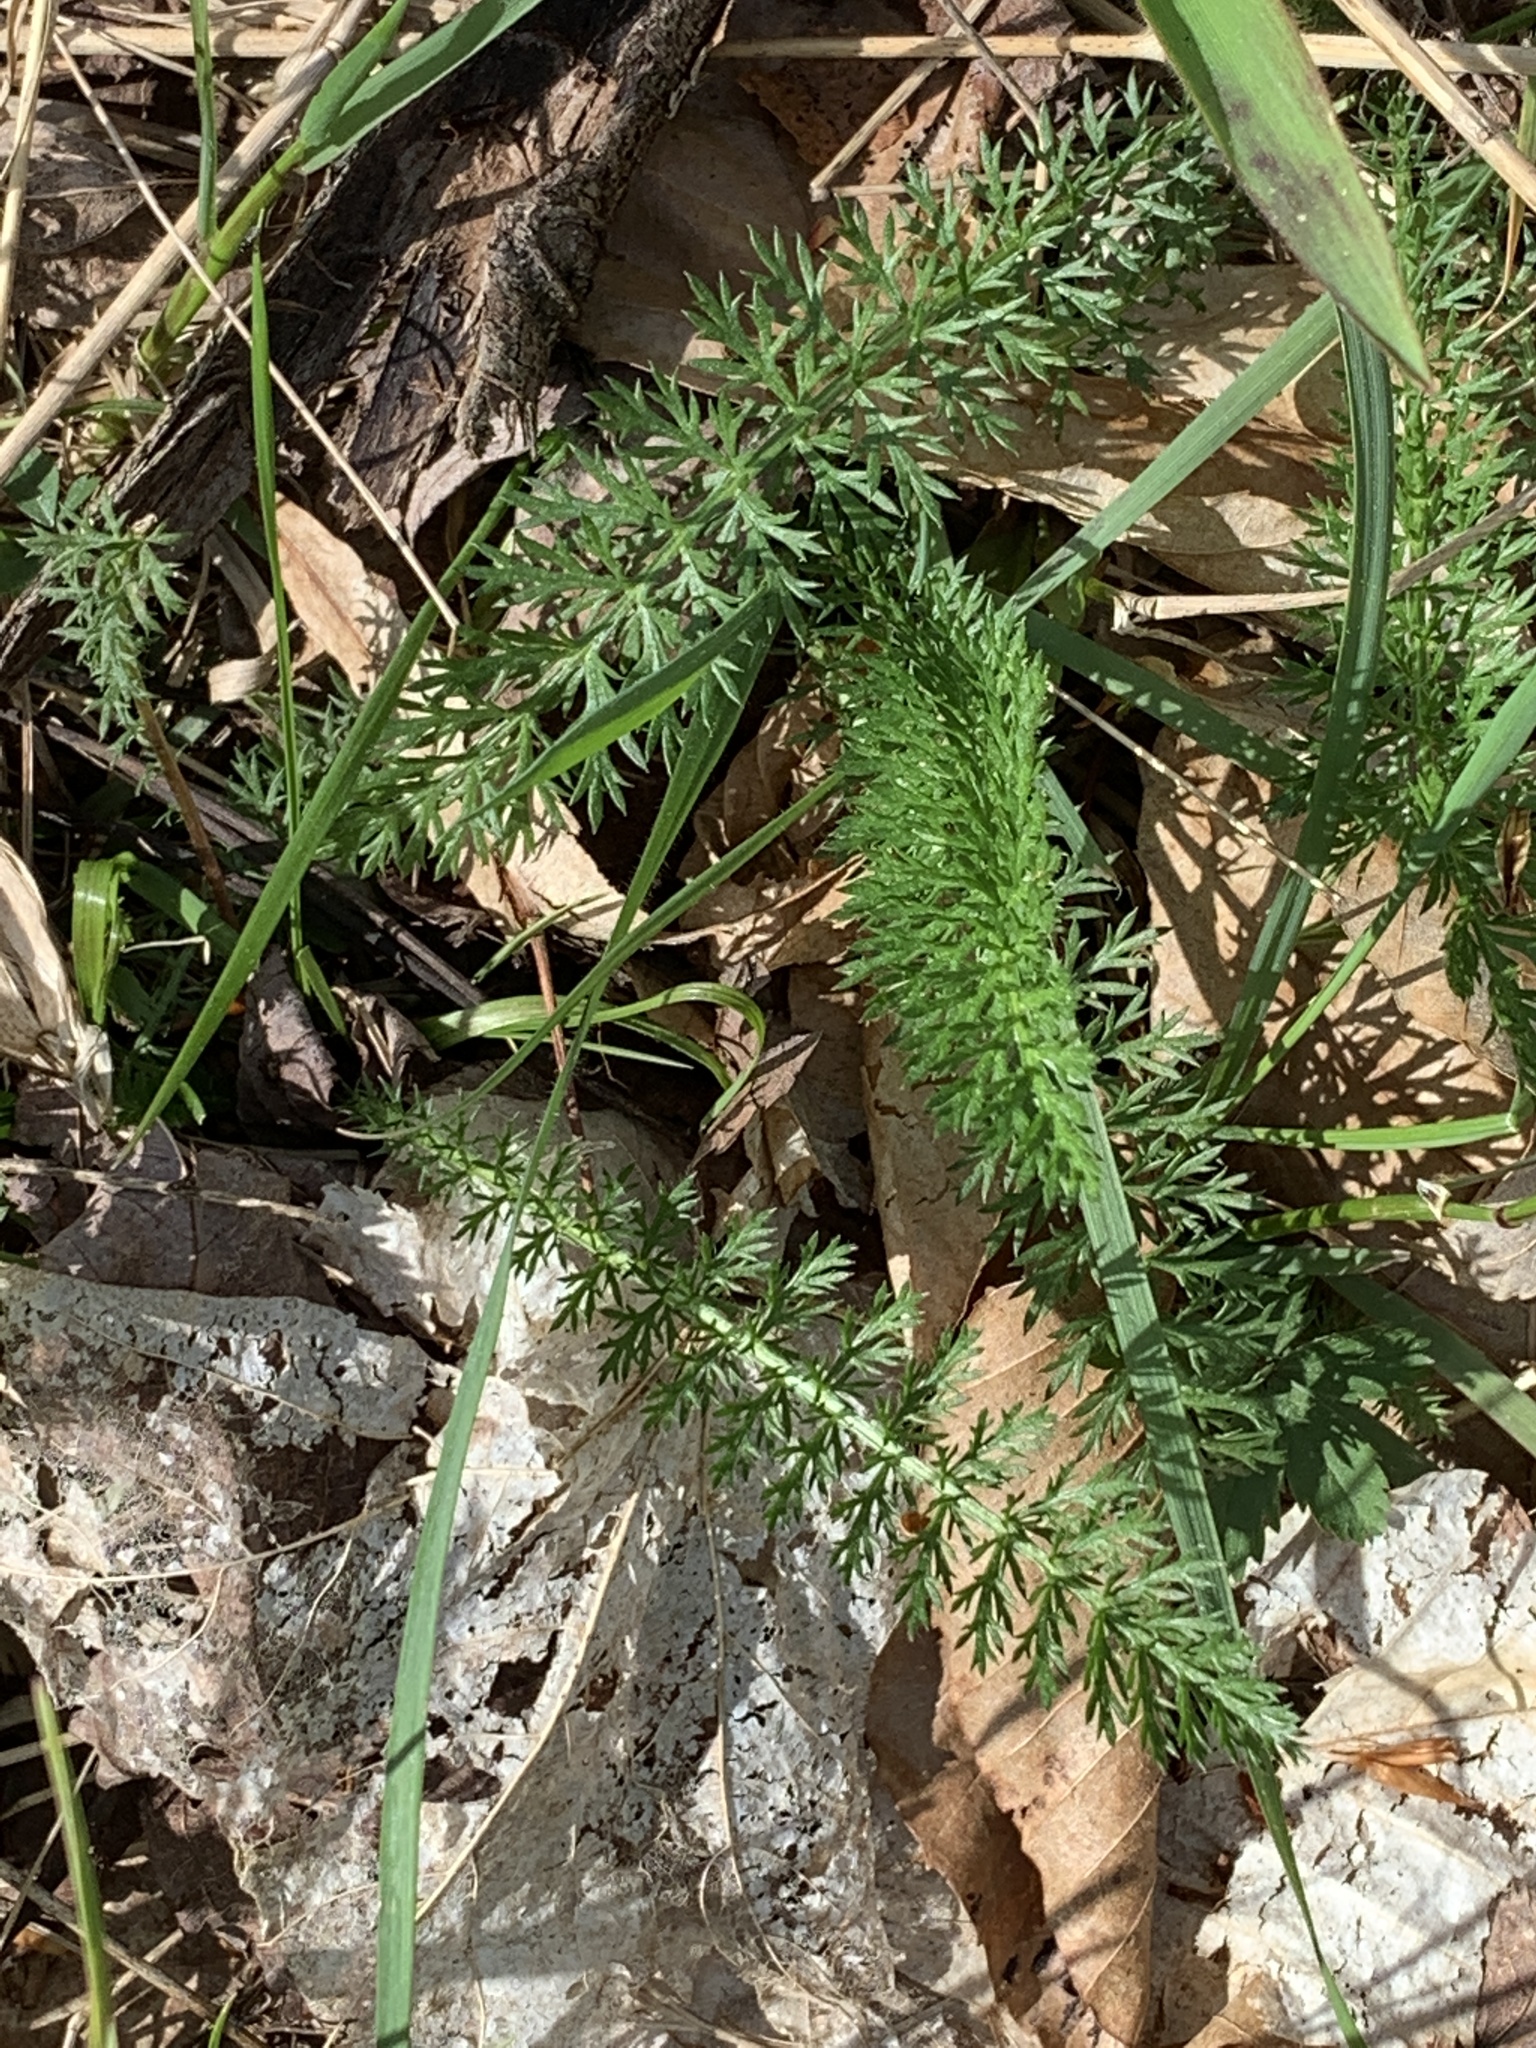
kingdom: Plantae
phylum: Tracheophyta
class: Magnoliopsida
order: Asterales
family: Asteraceae
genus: Achillea
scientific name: Achillea millefolium
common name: Yarrow
